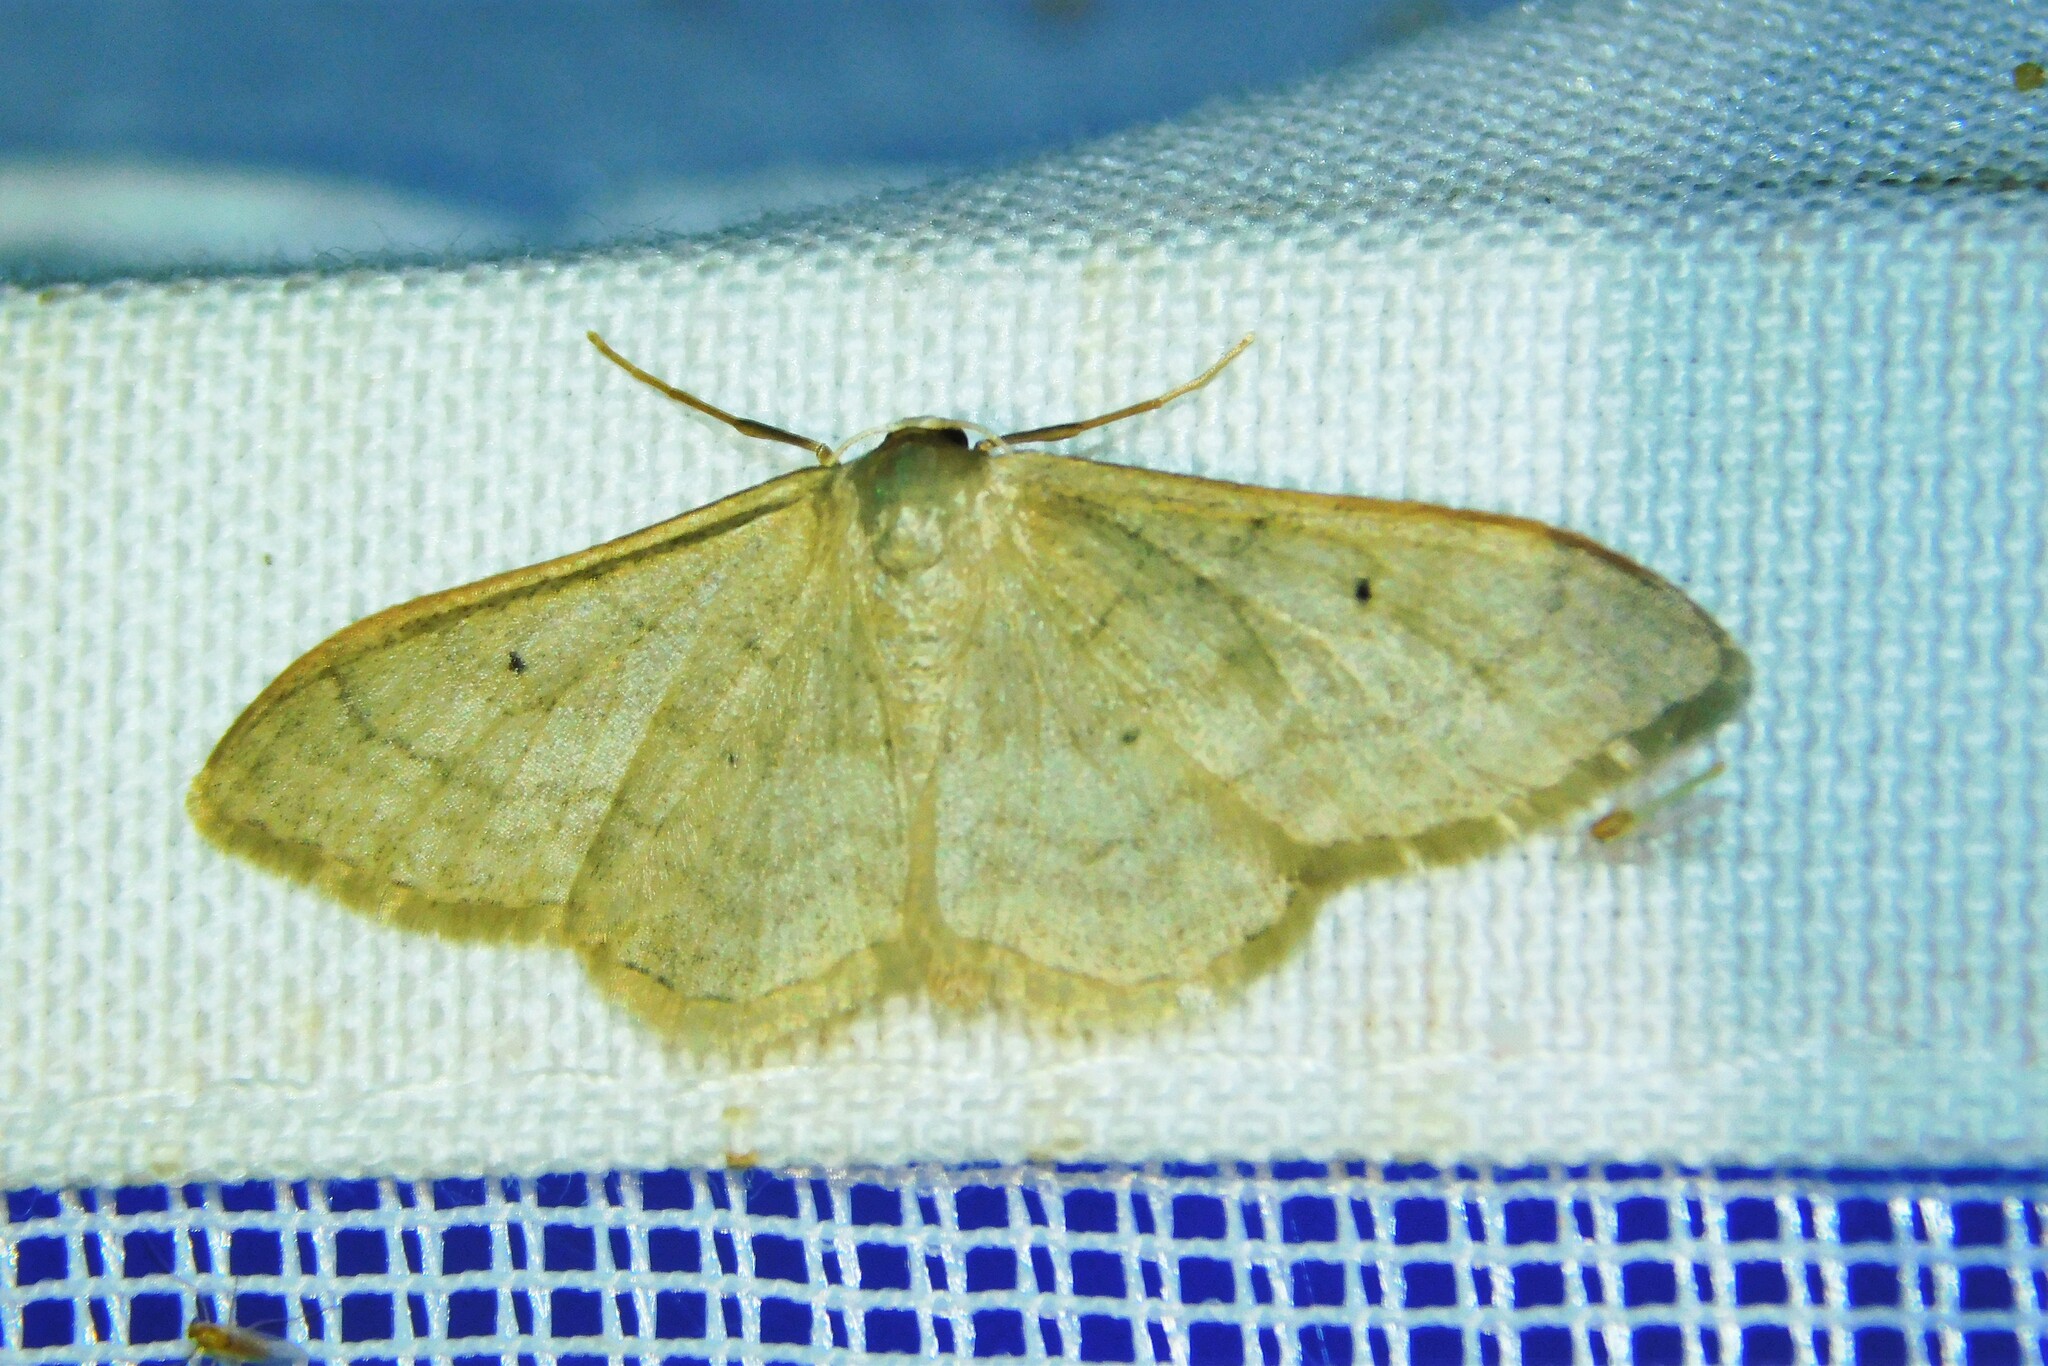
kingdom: Animalia
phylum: Arthropoda
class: Insecta
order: Lepidoptera
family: Geometridae
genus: Idaea
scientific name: Idaea straminata
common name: Plain wave
